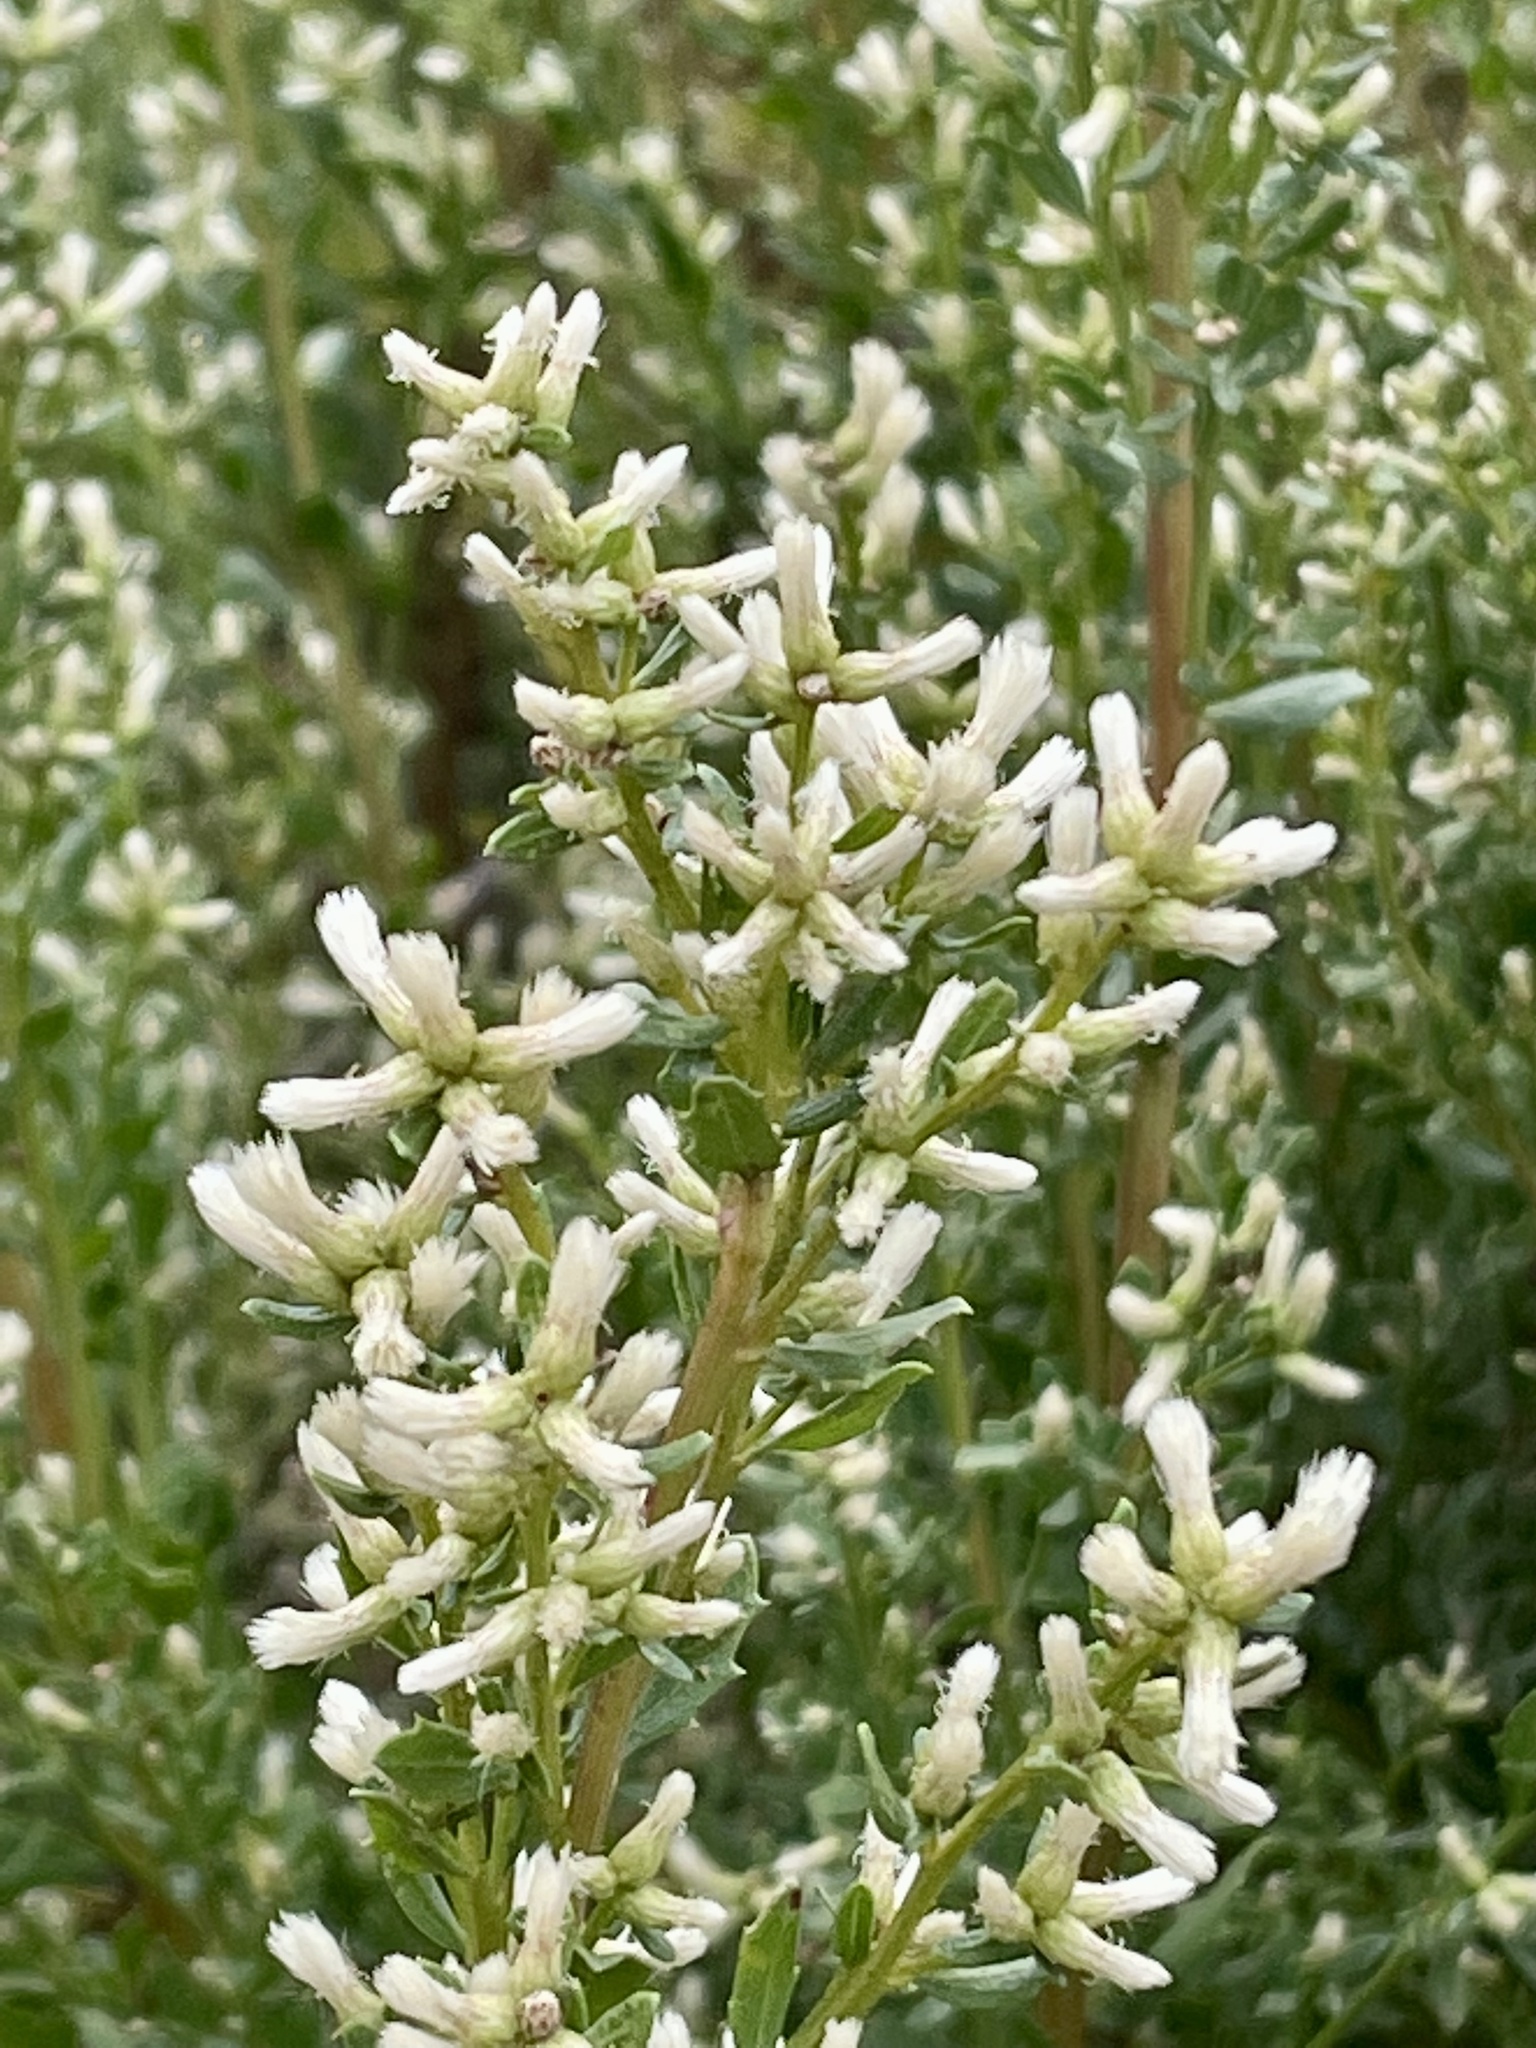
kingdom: Plantae
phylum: Tracheophyta
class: Magnoliopsida
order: Asterales
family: Asteraceae
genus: Baccharis
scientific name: Baccharis pilularis
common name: Coyotebrush
